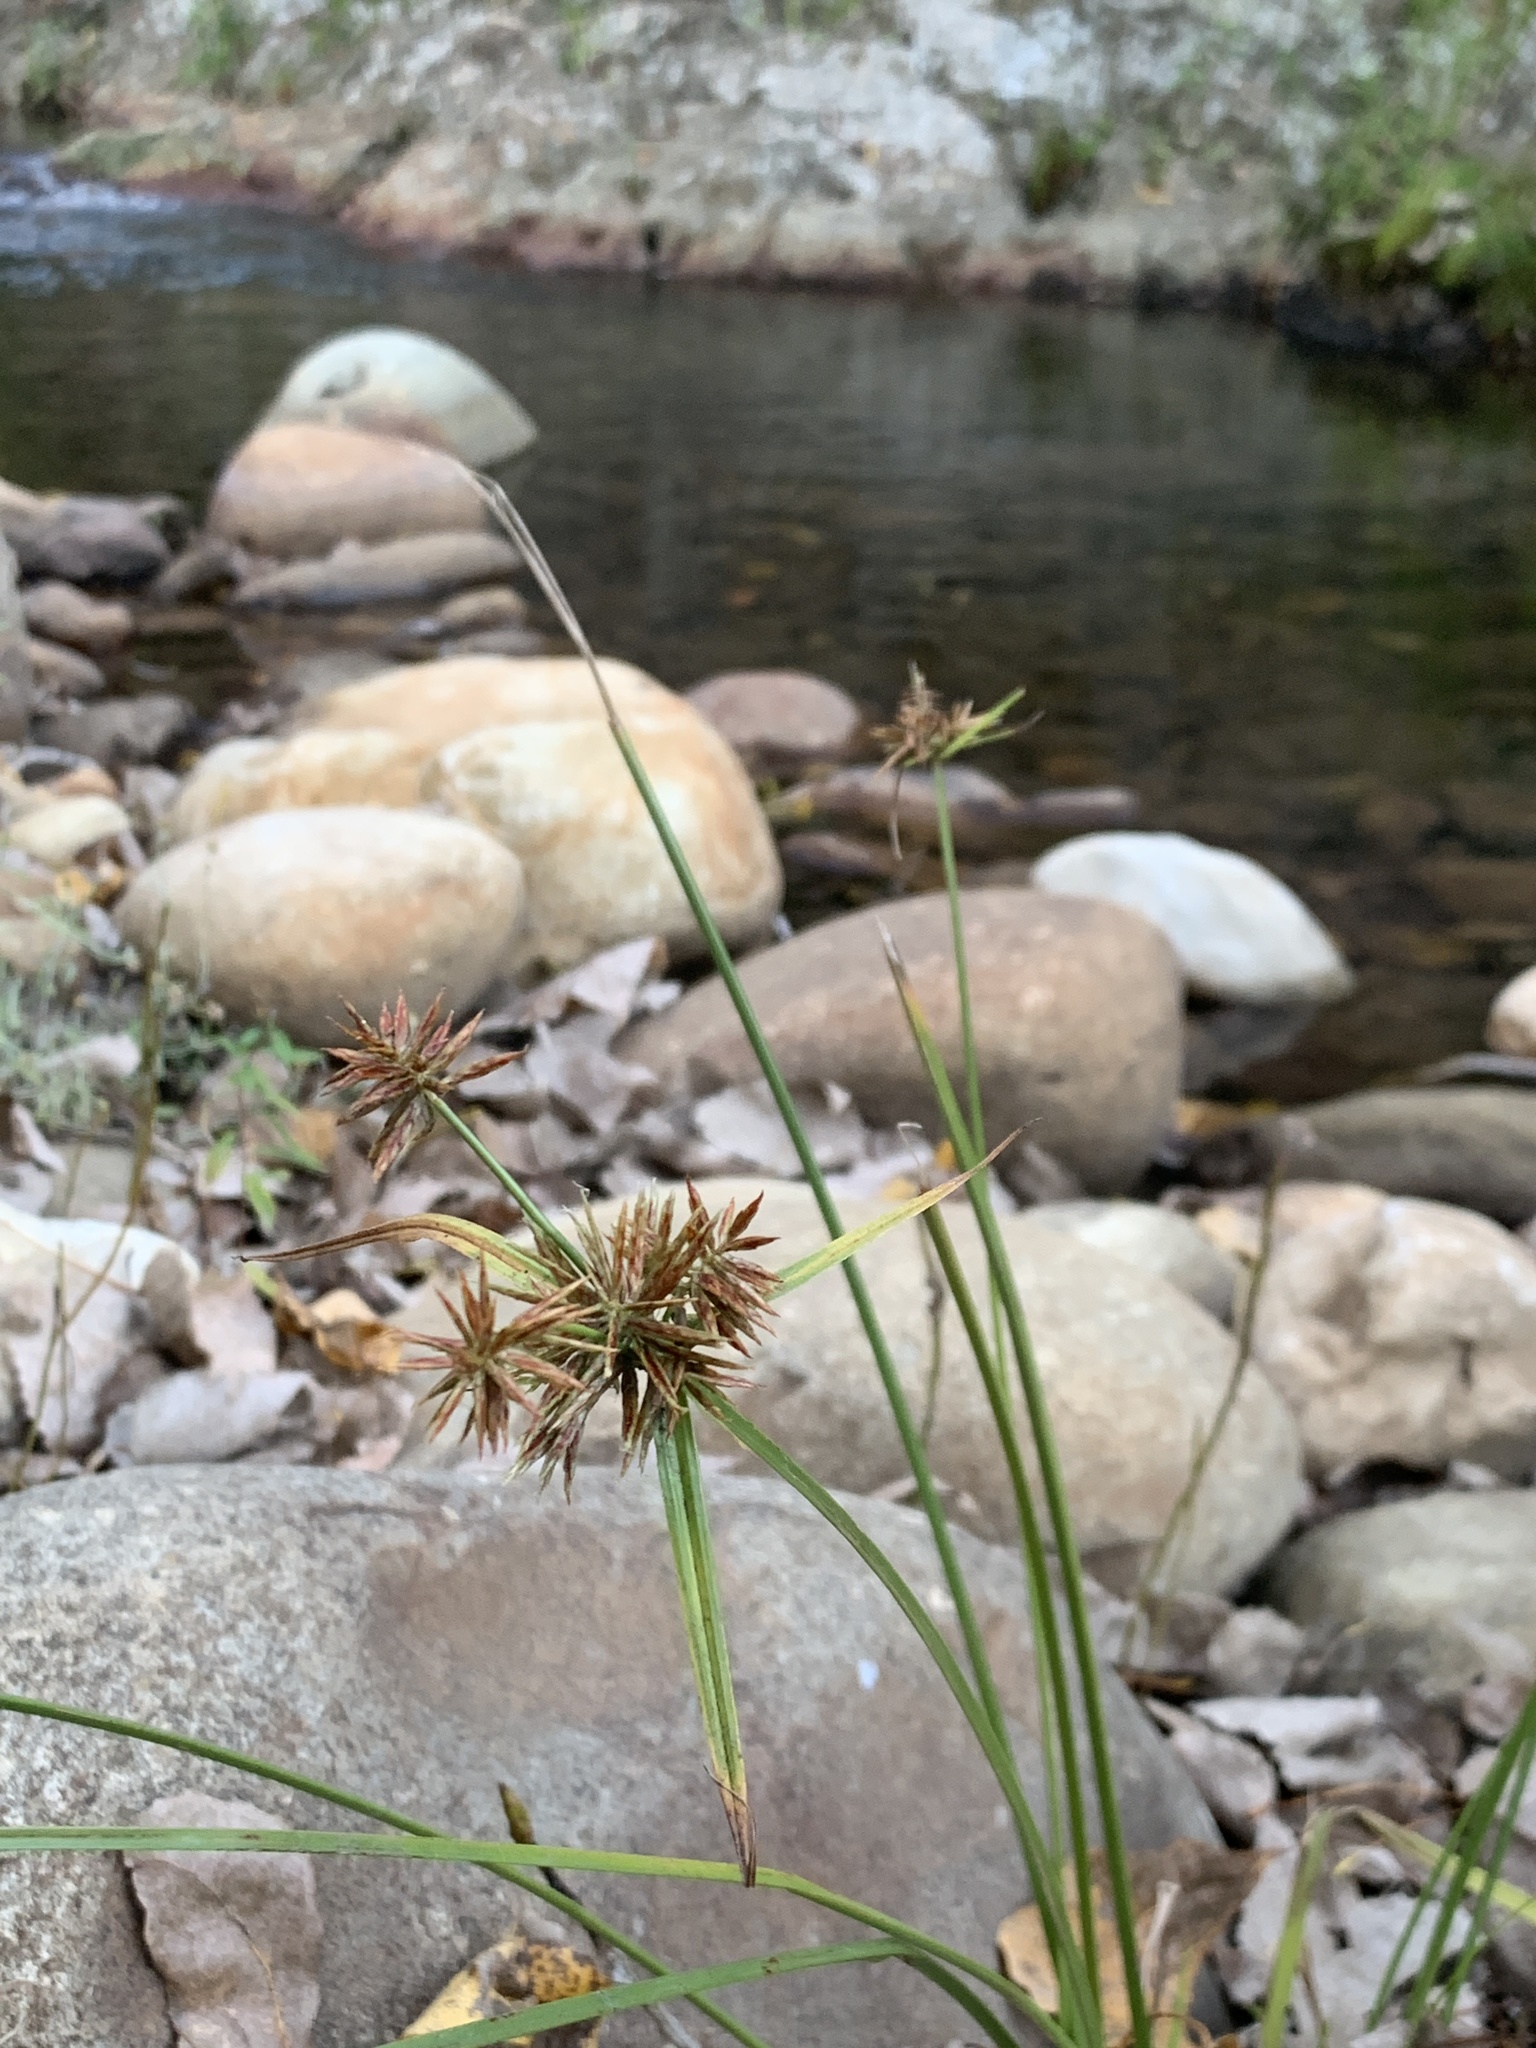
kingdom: Plantae
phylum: Tracheophyta
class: Liliopsida
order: Poales
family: Cyperaceae
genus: Cyperus
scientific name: Cyperus congestus
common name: Dense flat sedge
